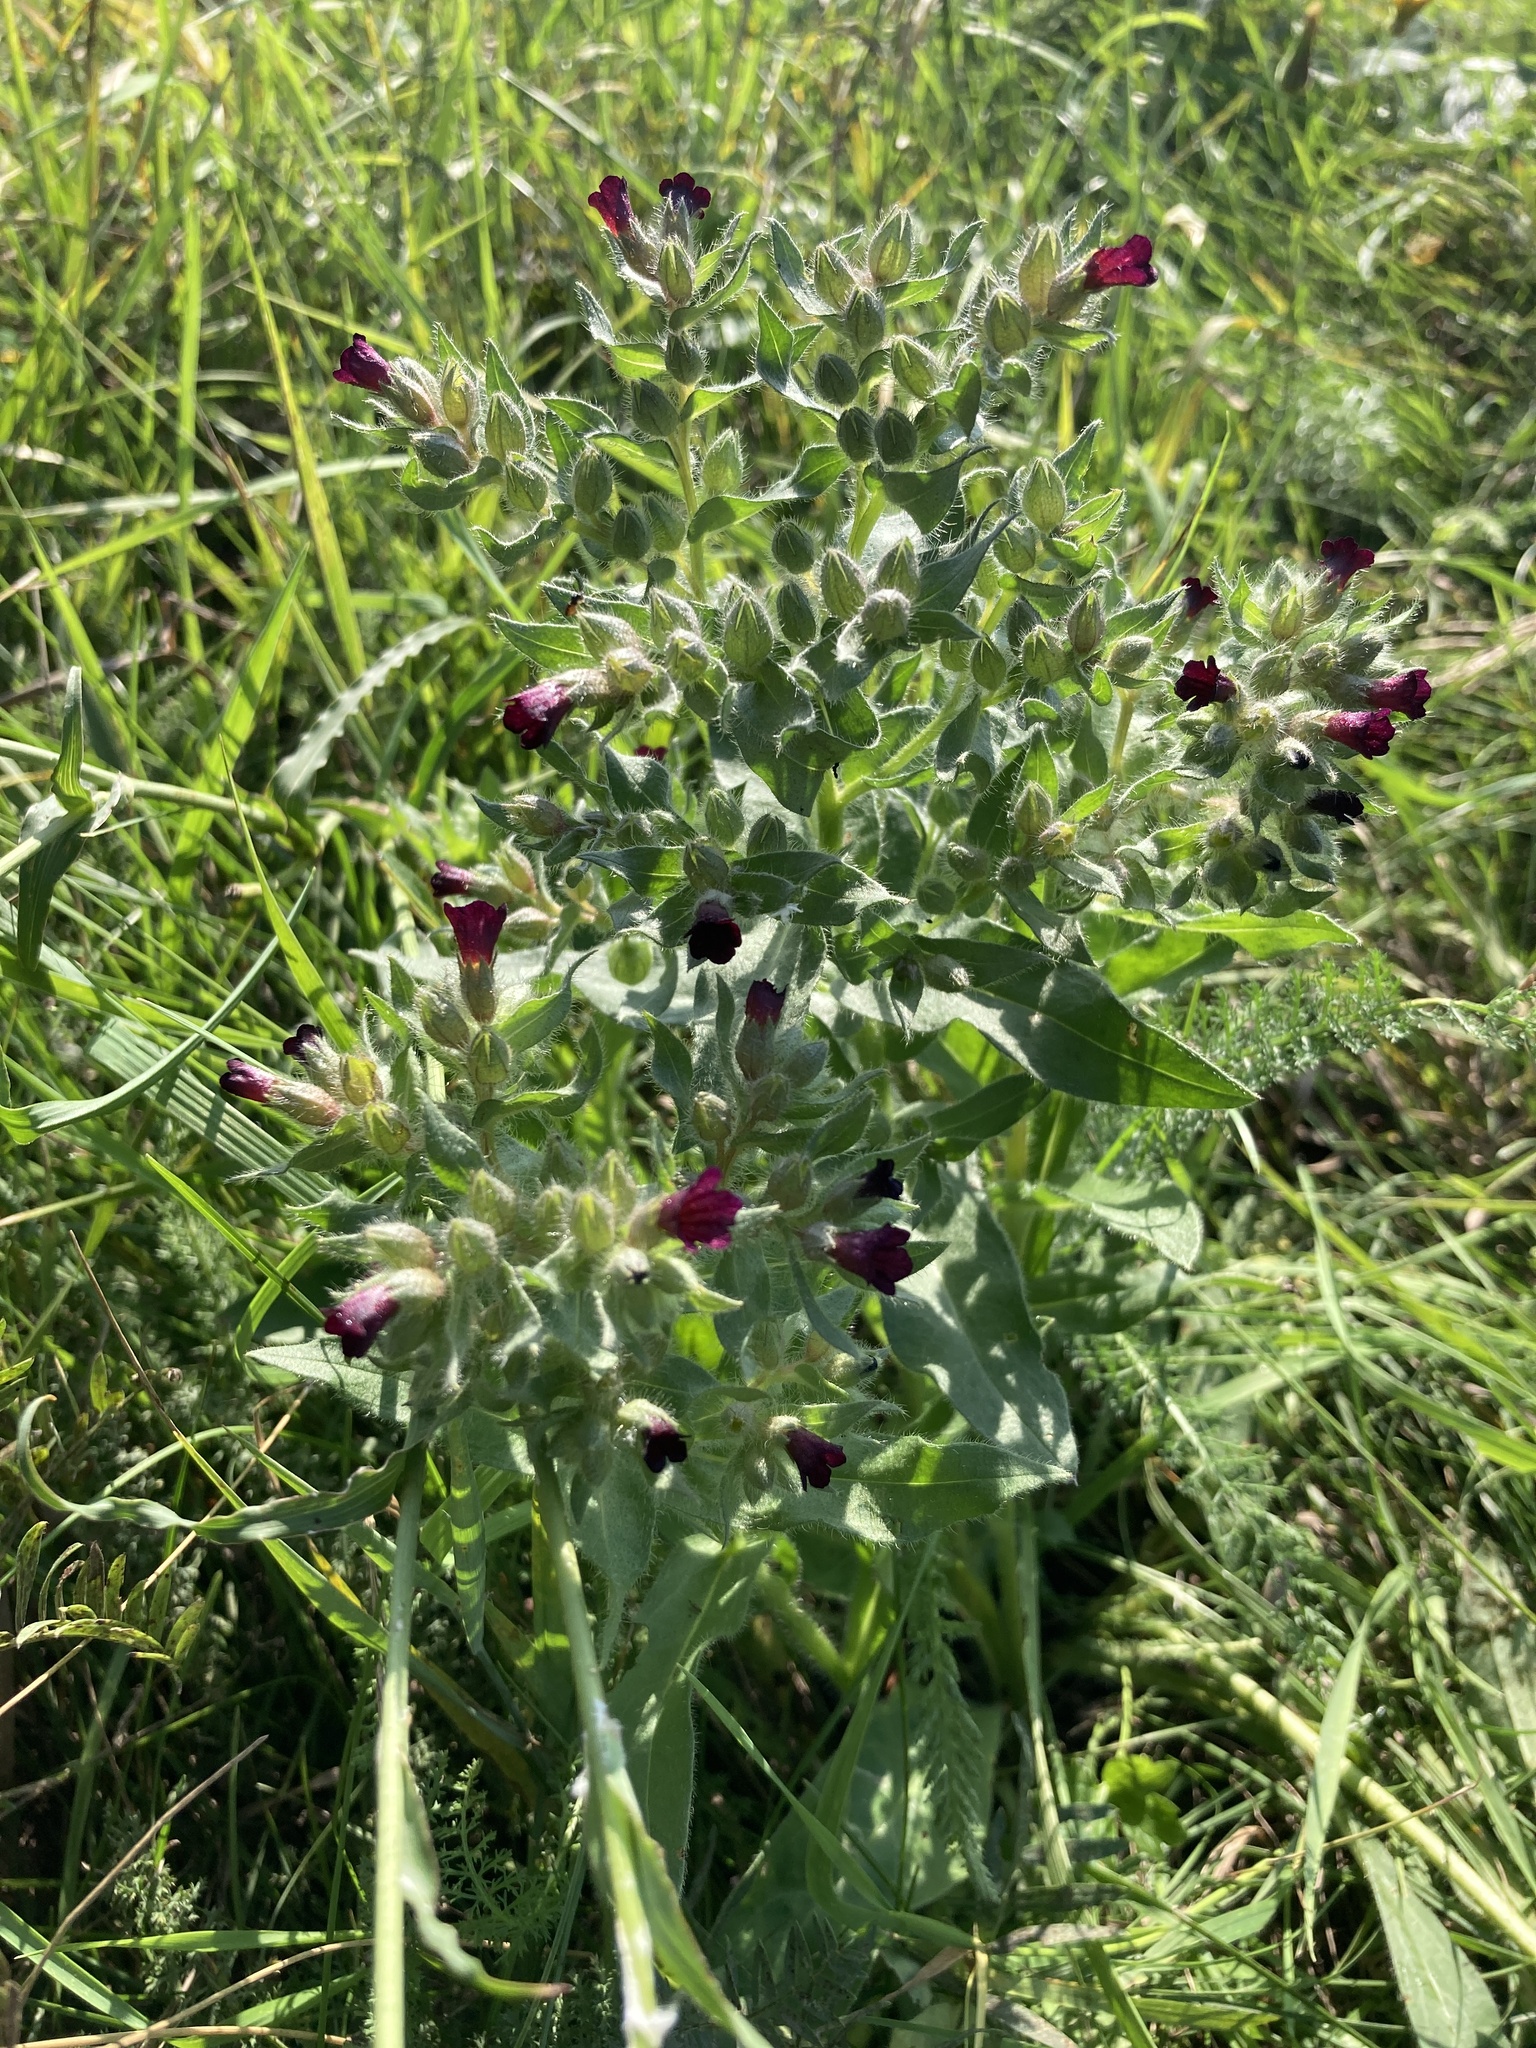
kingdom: Plantae
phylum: Tracheophyta
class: Magnoliopsida
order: Boraginales
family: Boraginaceae
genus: Nonea
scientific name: Nonea pulla
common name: Brown nonea
